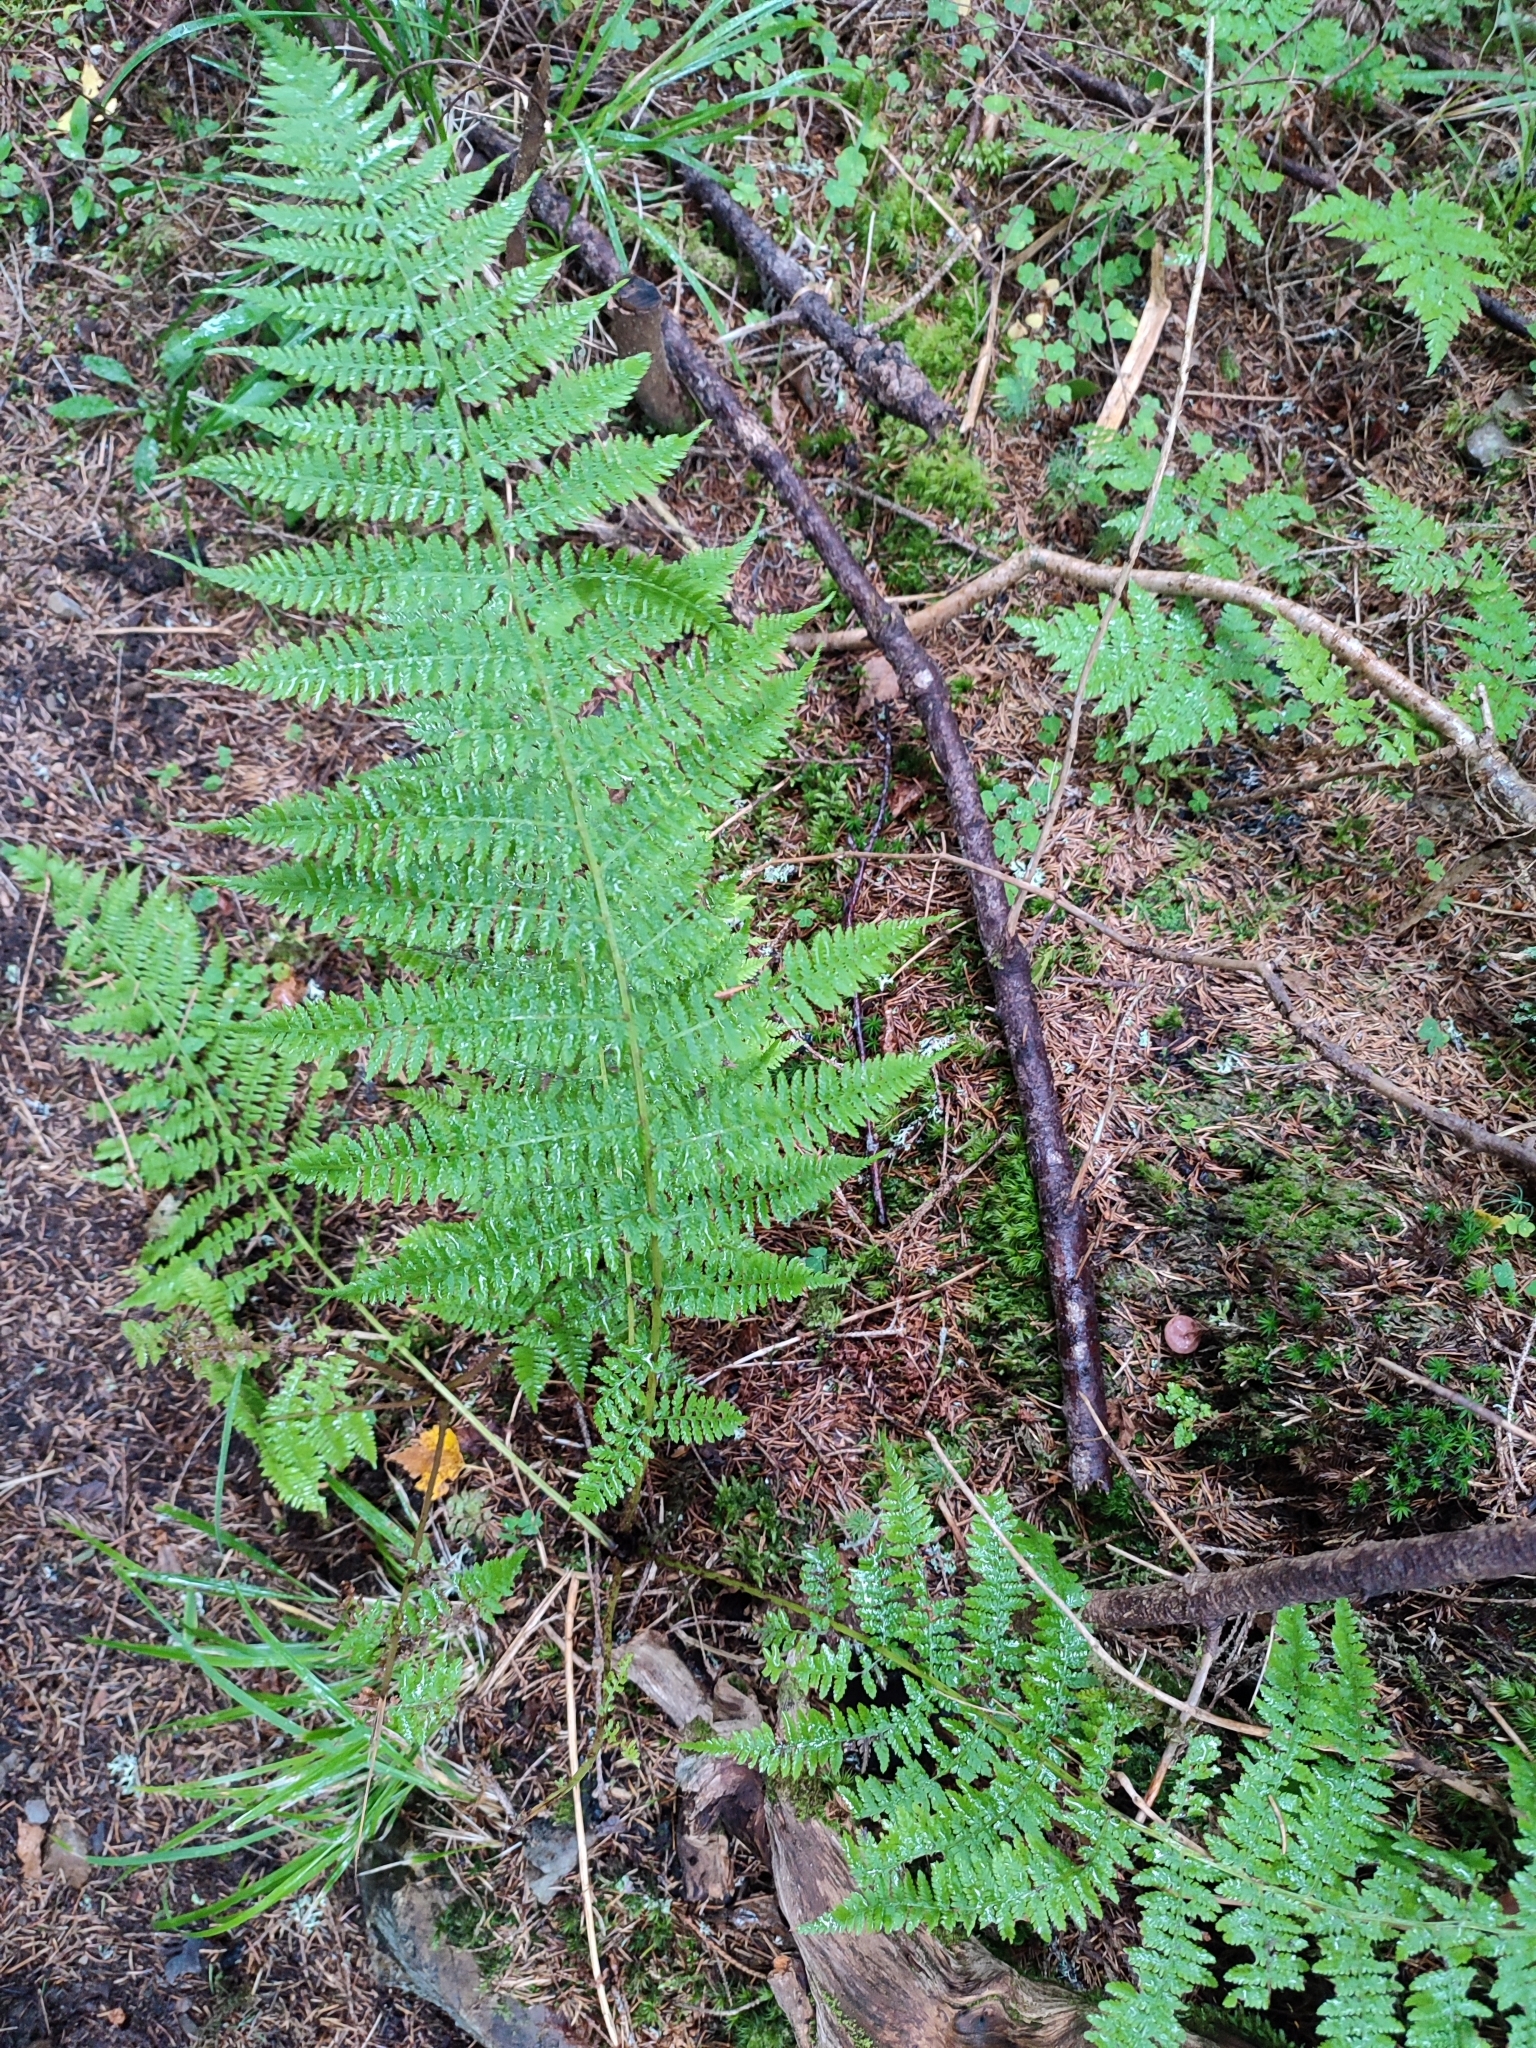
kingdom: Plantae
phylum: Tracheophyta
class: Polypodiopsida
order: Polypodiales
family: Athyriaceae
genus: Athyrium
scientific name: Athyrium filix-femina
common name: Lady fern
